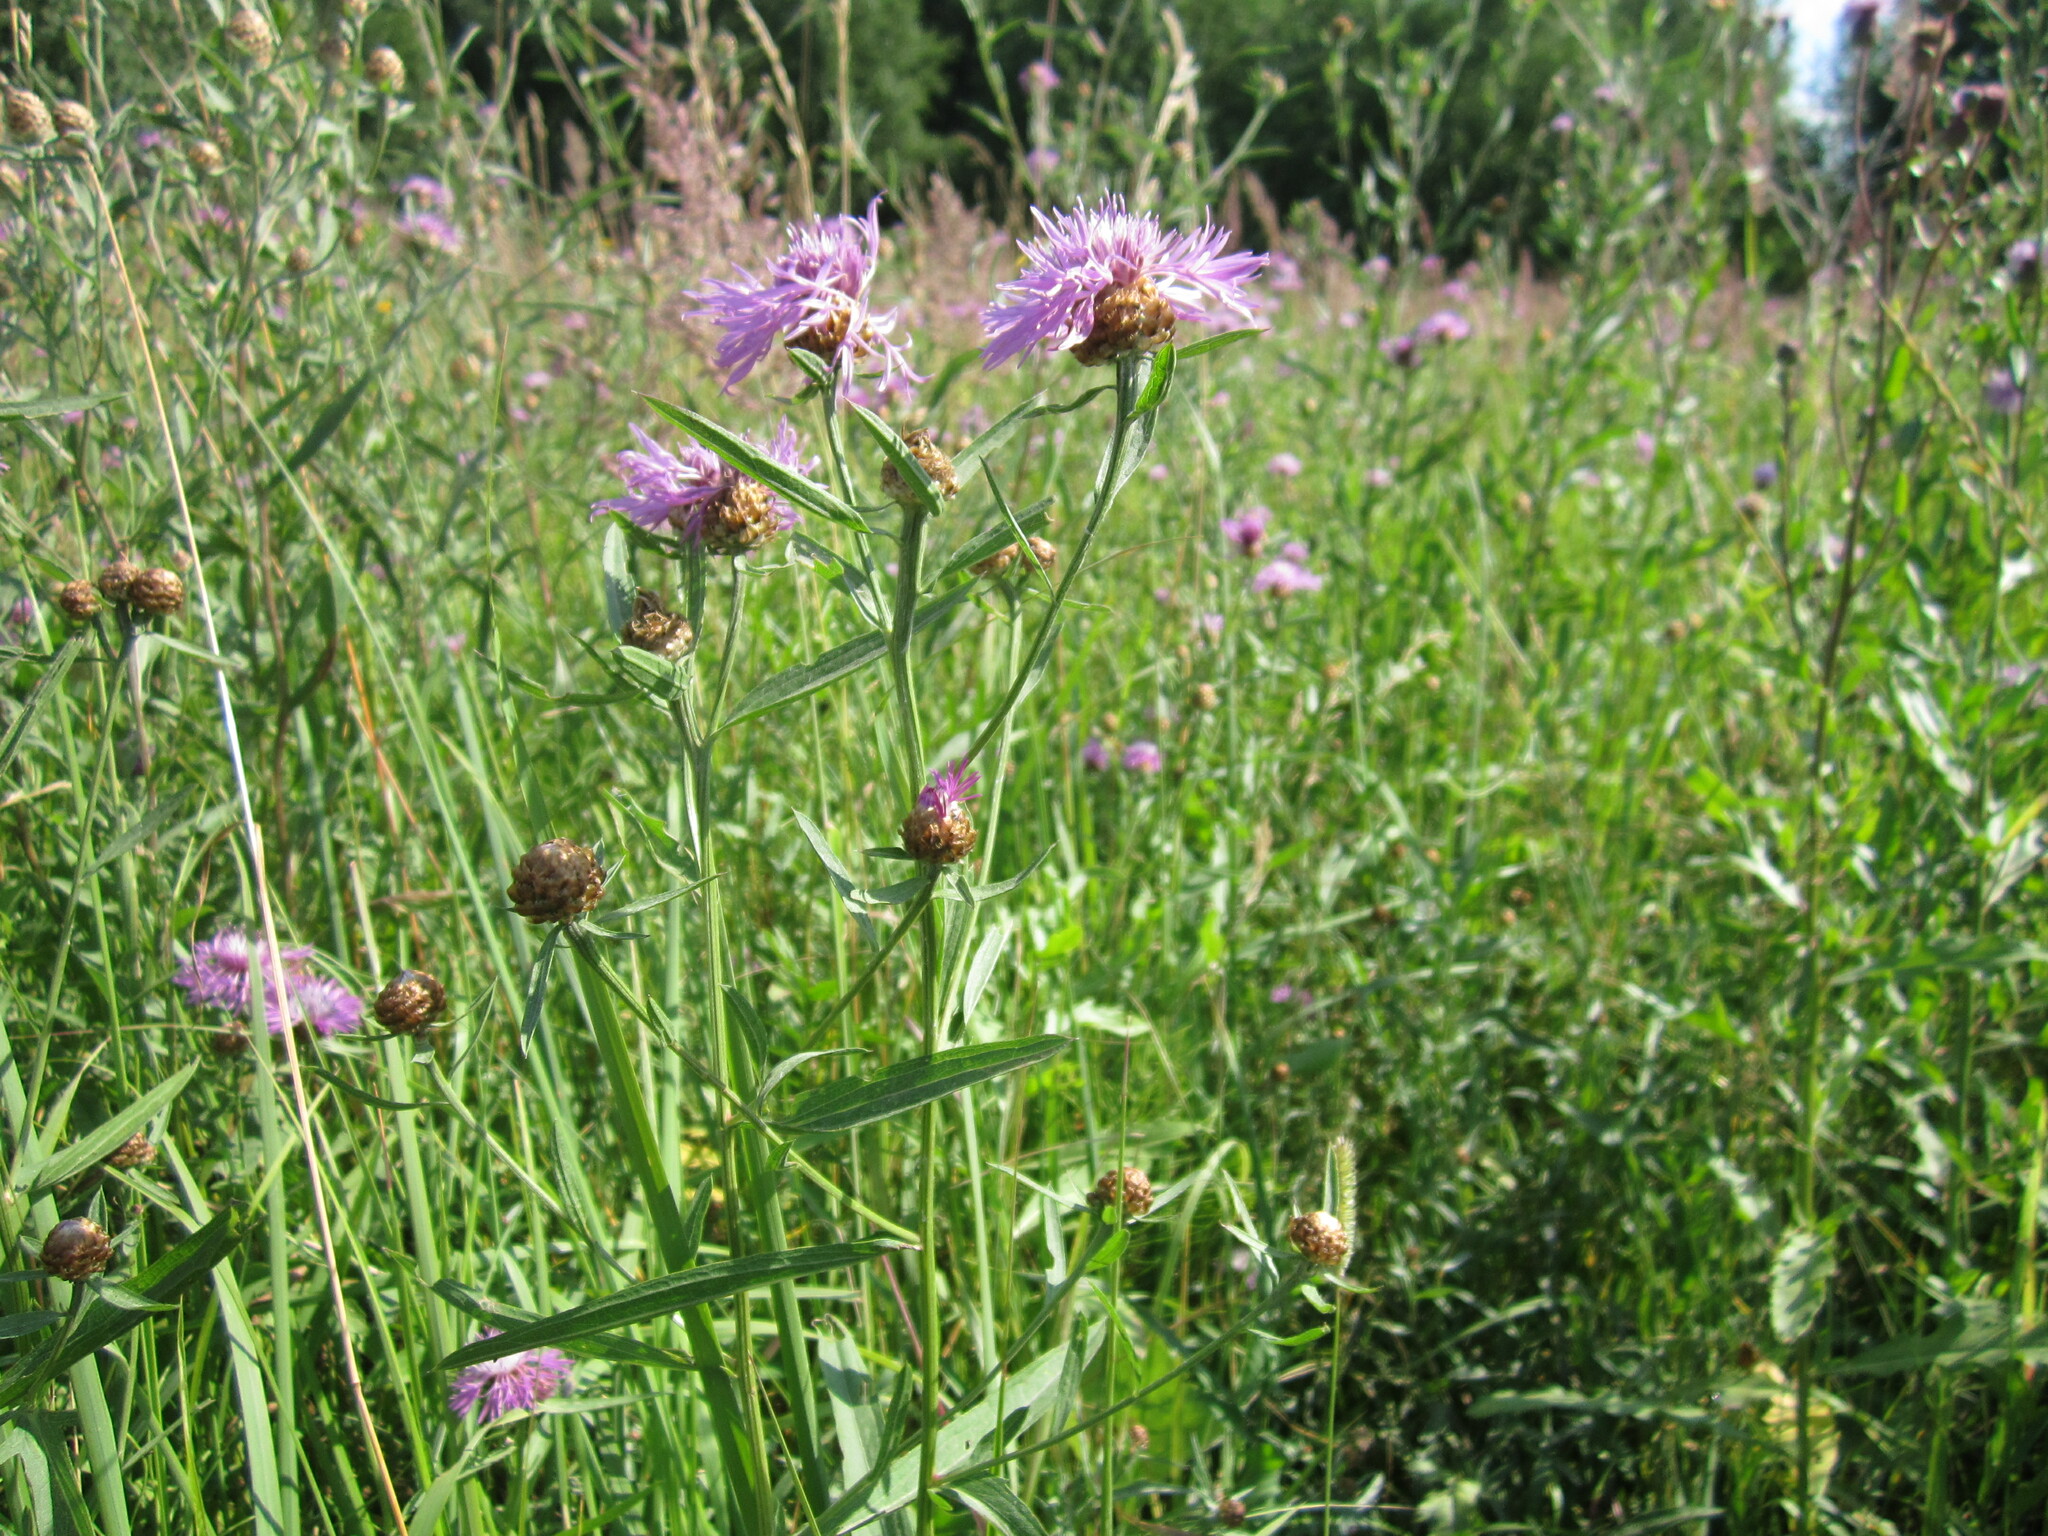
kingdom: Plantae
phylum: Tracheophyta
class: Magnoliopsida
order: Asterales
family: Asteraceae
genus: Centaurea
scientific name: Centaurea jacea
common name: Brown knapweed
